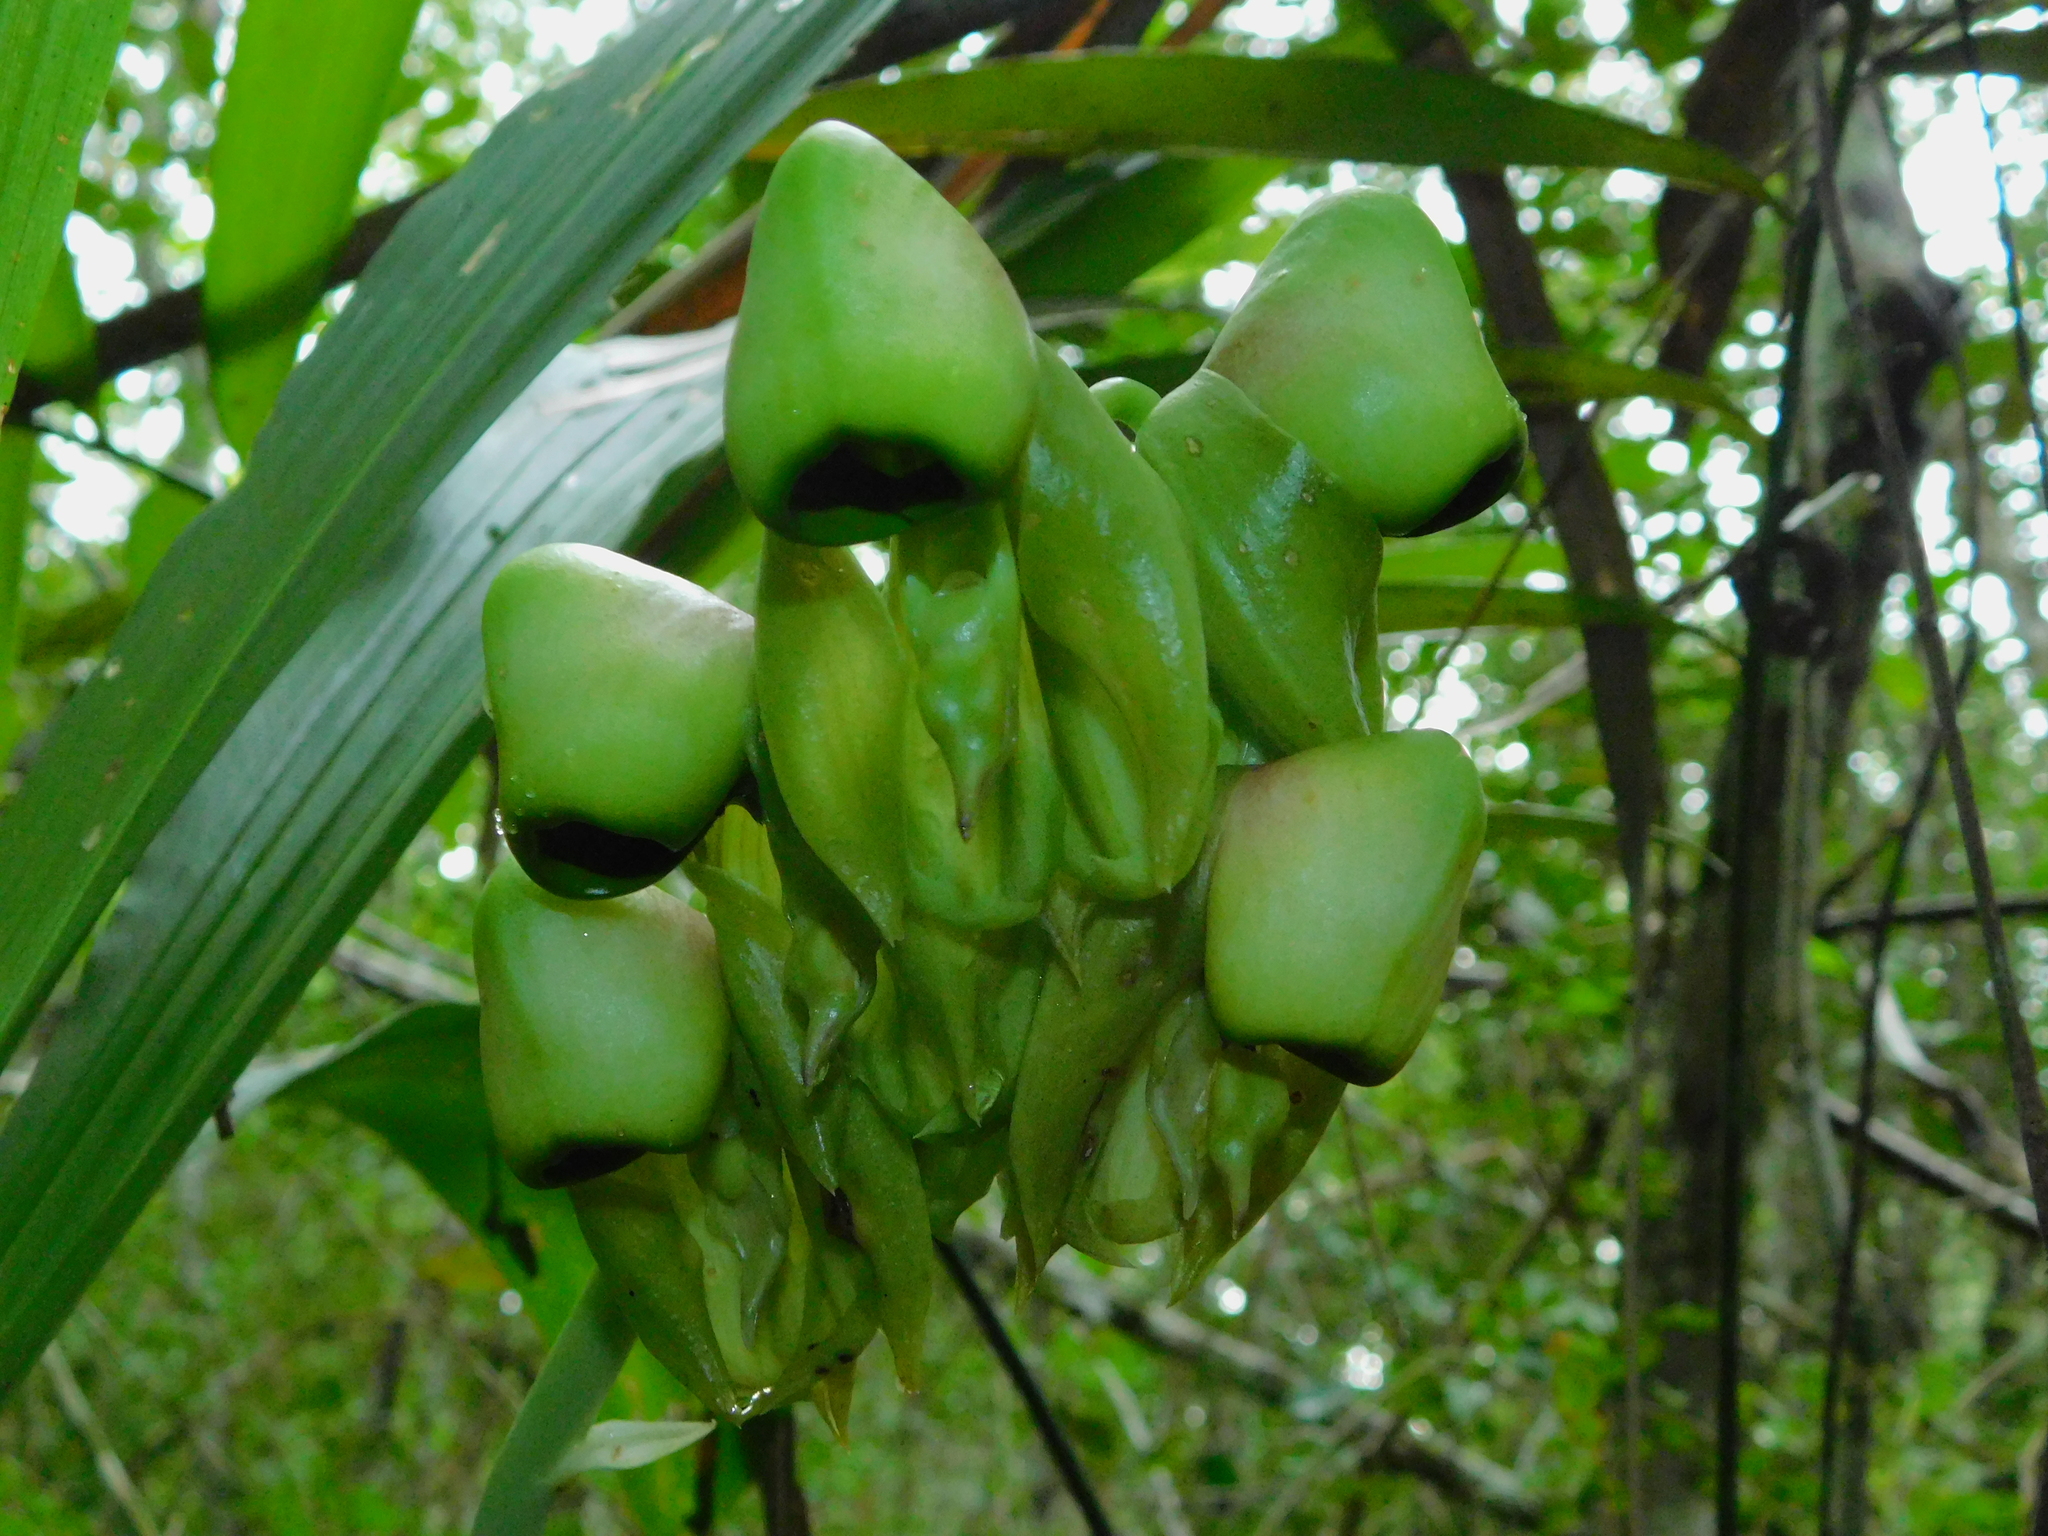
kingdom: Plantae
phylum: Tracheophyta
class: Liliopsida
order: Asparagales
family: Orchidaceae
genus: Catasetum
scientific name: Catasetum integerrimum
